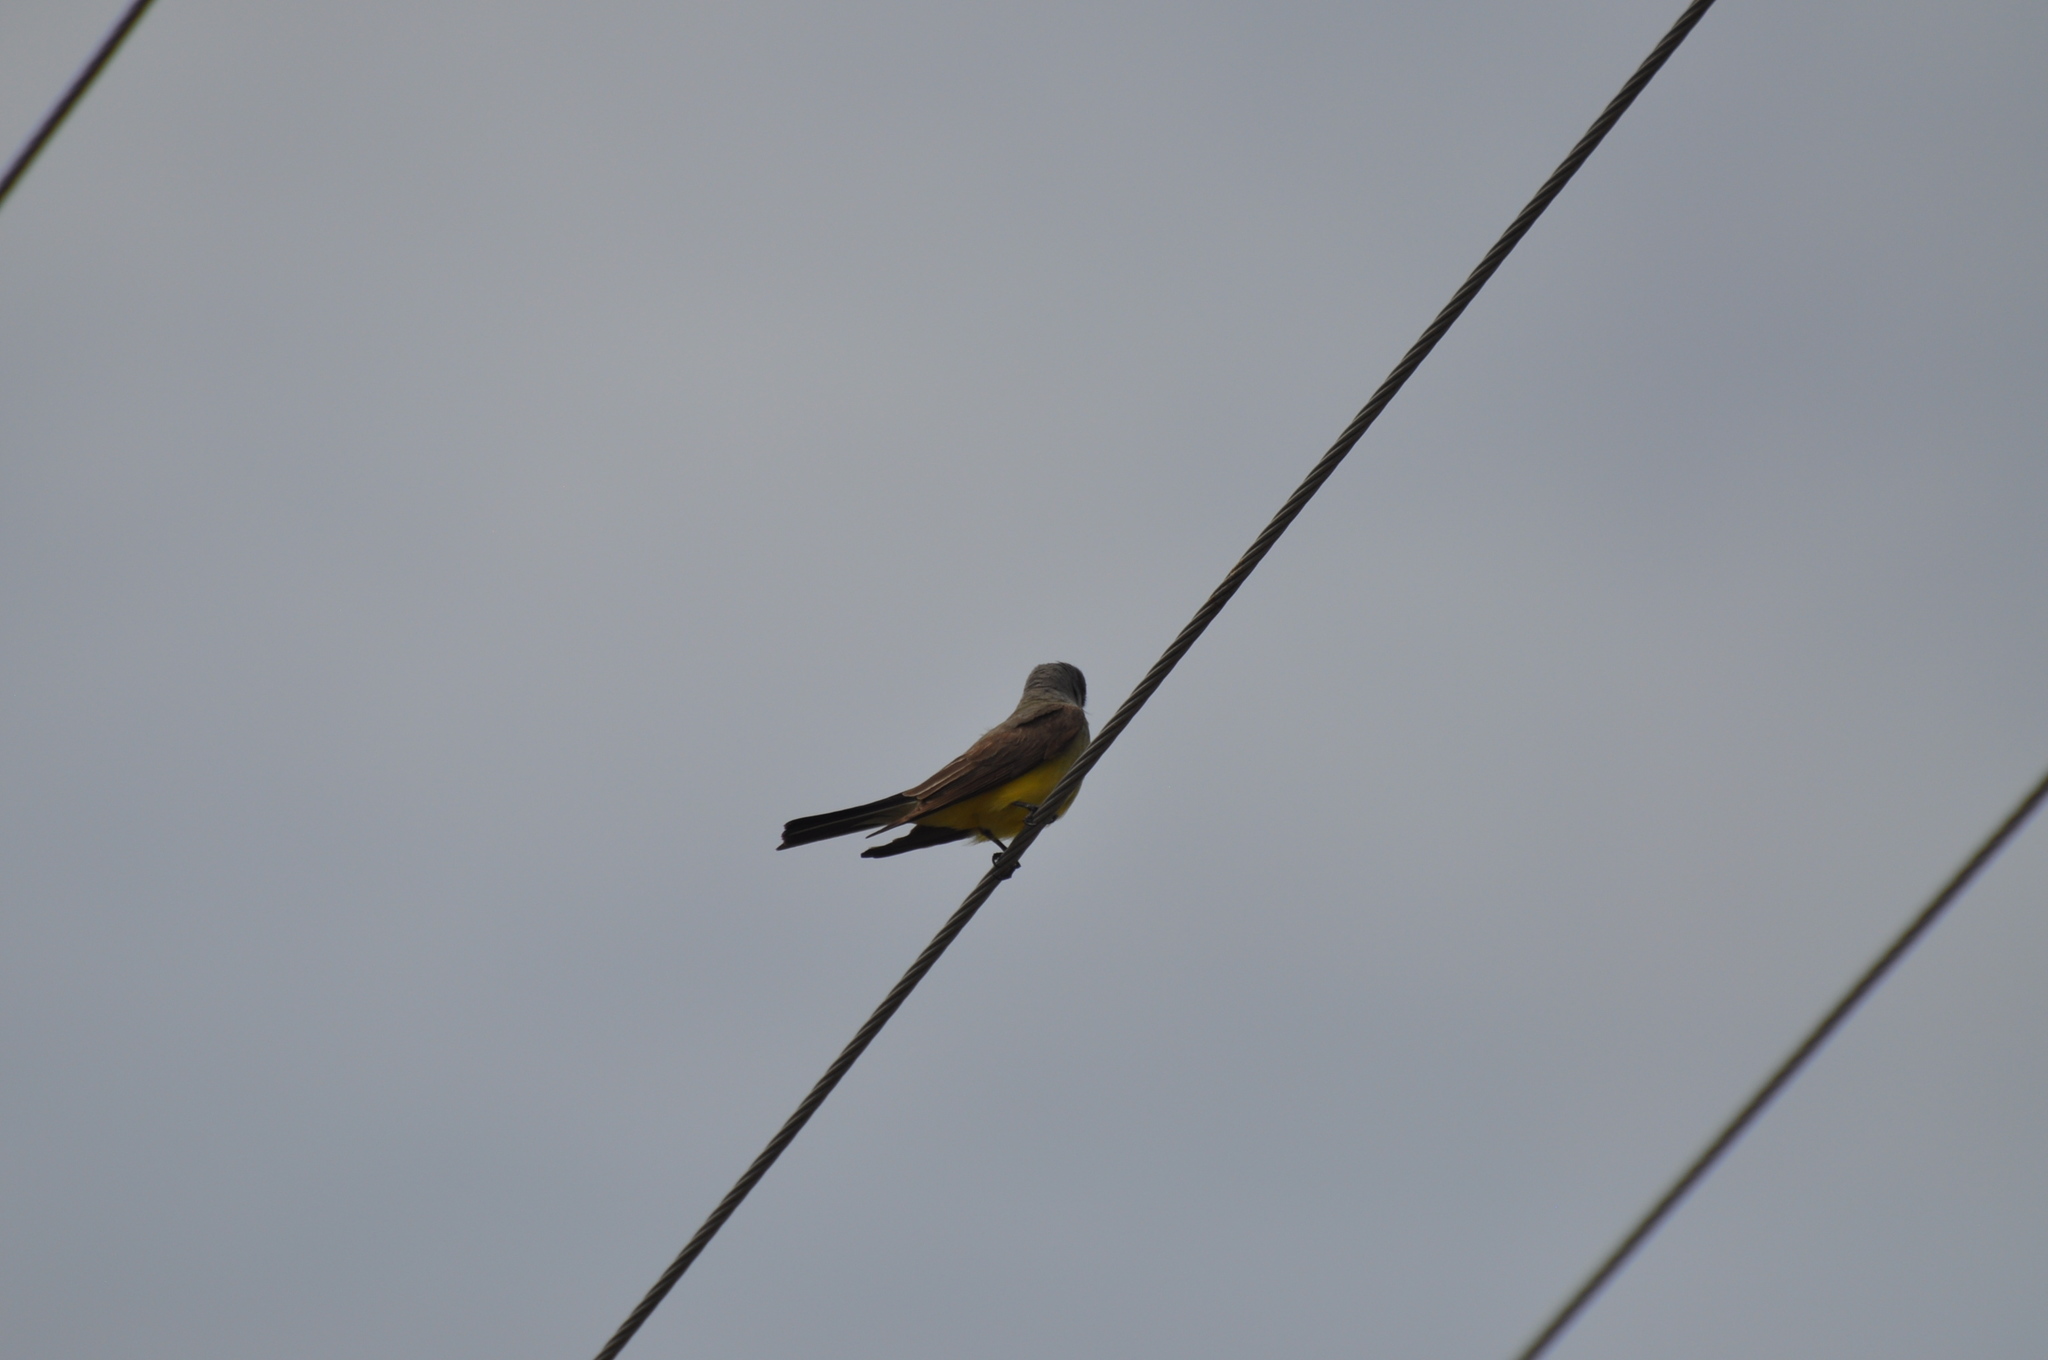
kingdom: Animalia
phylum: Chordata
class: Aves
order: Passeriformes
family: Tyrannidae
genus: Tyrannus
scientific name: Tyrannus verticalis
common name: Western kingbird
